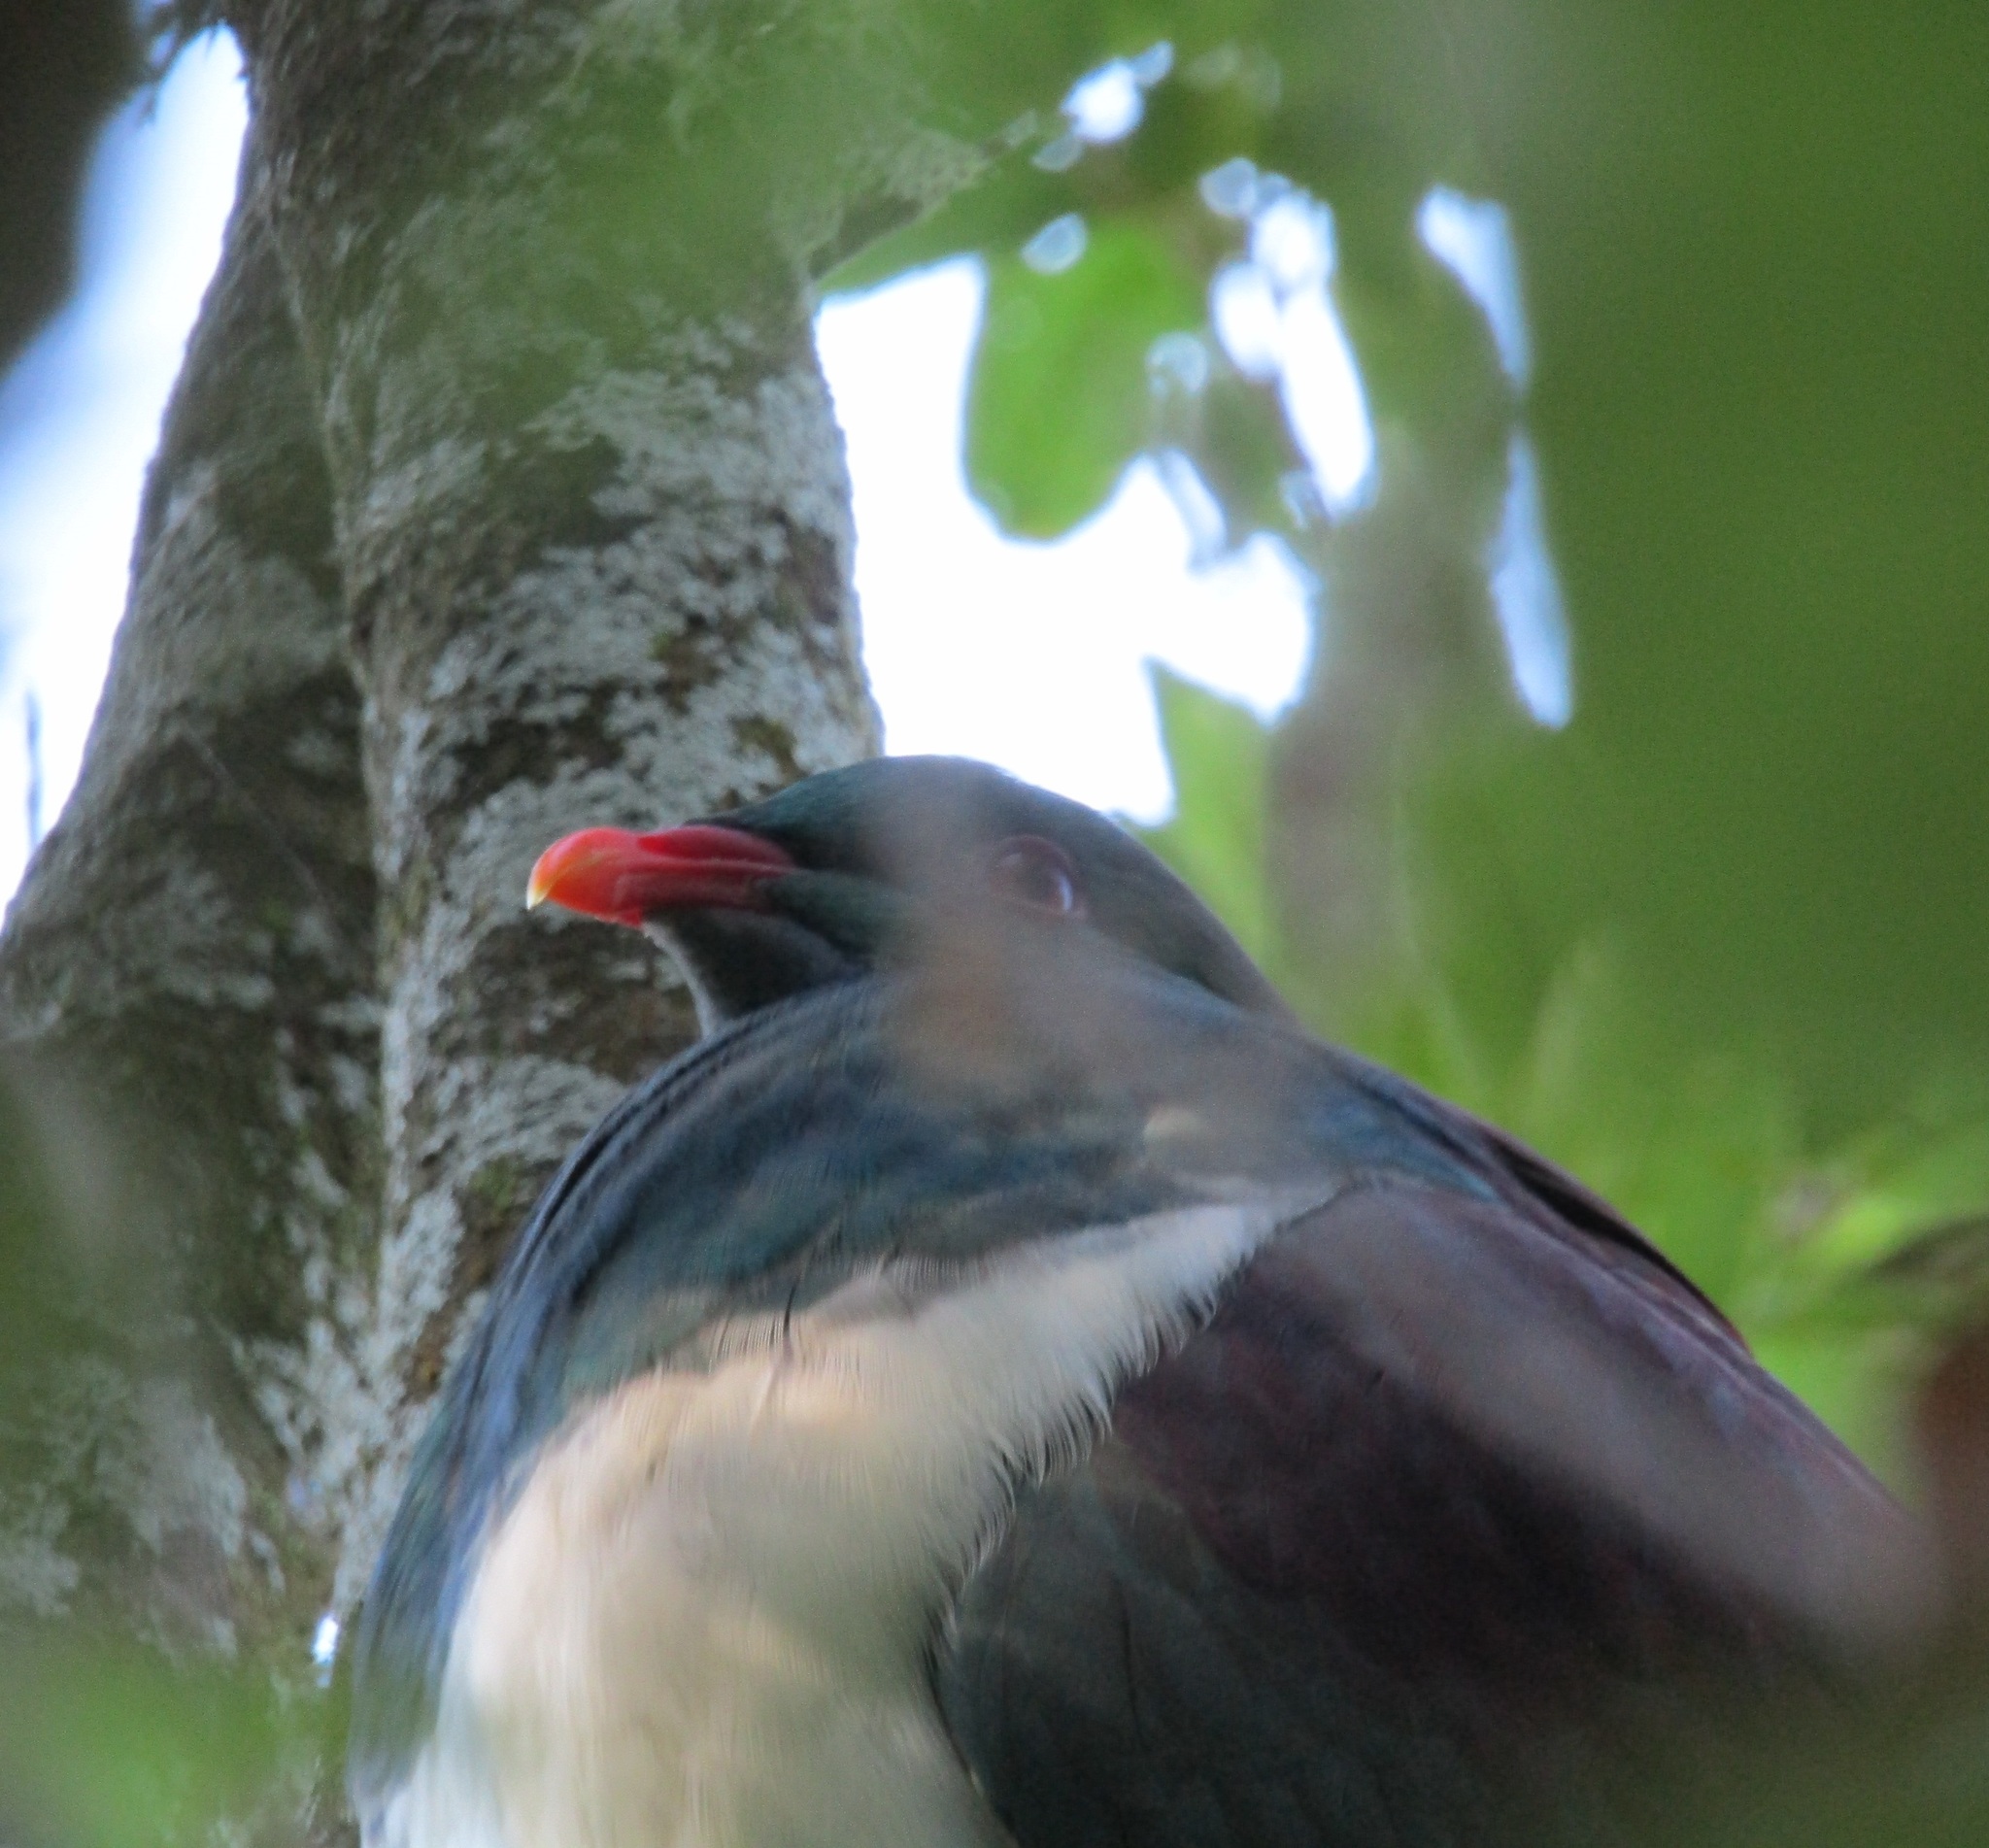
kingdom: Animalia
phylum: Chordata
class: Aves
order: Columbiformes
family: Columbidae
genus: Hemiphaga
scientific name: Hemiphaga novaeseelandiae
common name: New zealand pigeon
